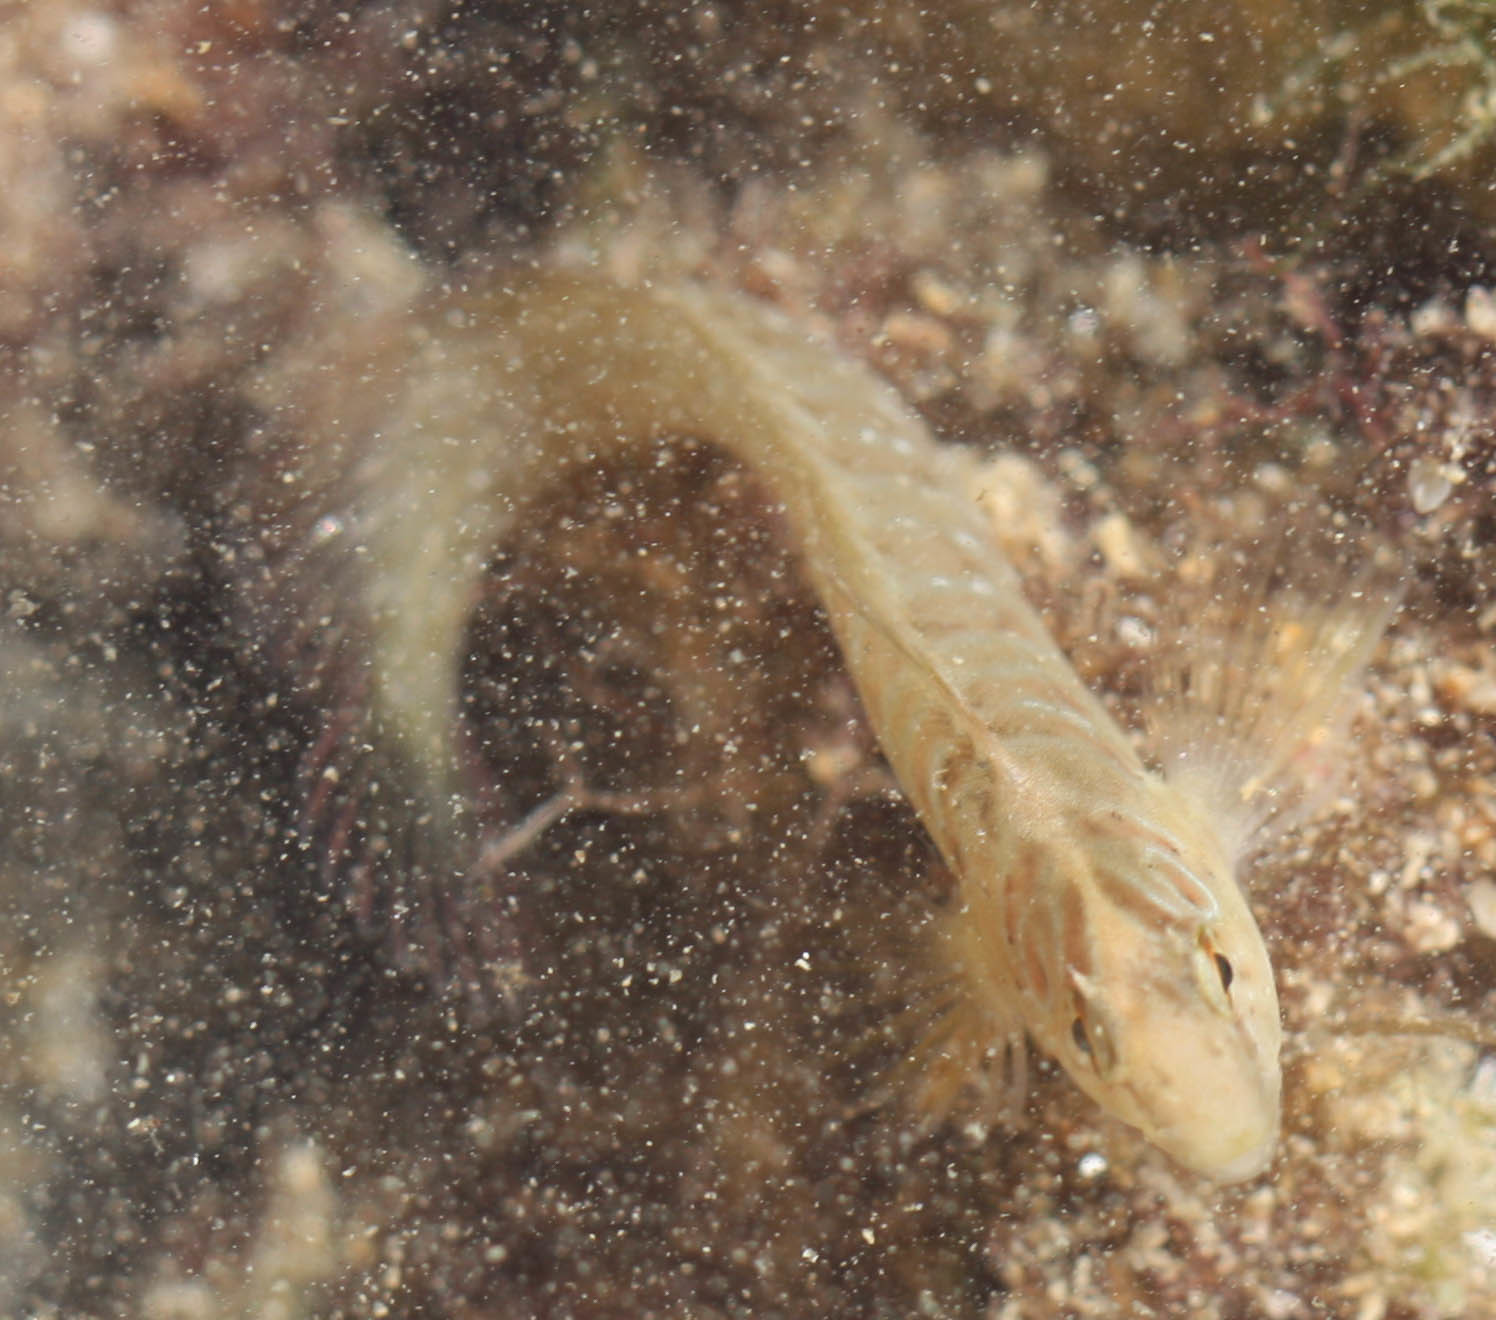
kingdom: Animalia
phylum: Chordata
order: Perciformes
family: Blenniidae
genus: Salaria
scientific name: Salaria pavo
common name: Peacock blenny
